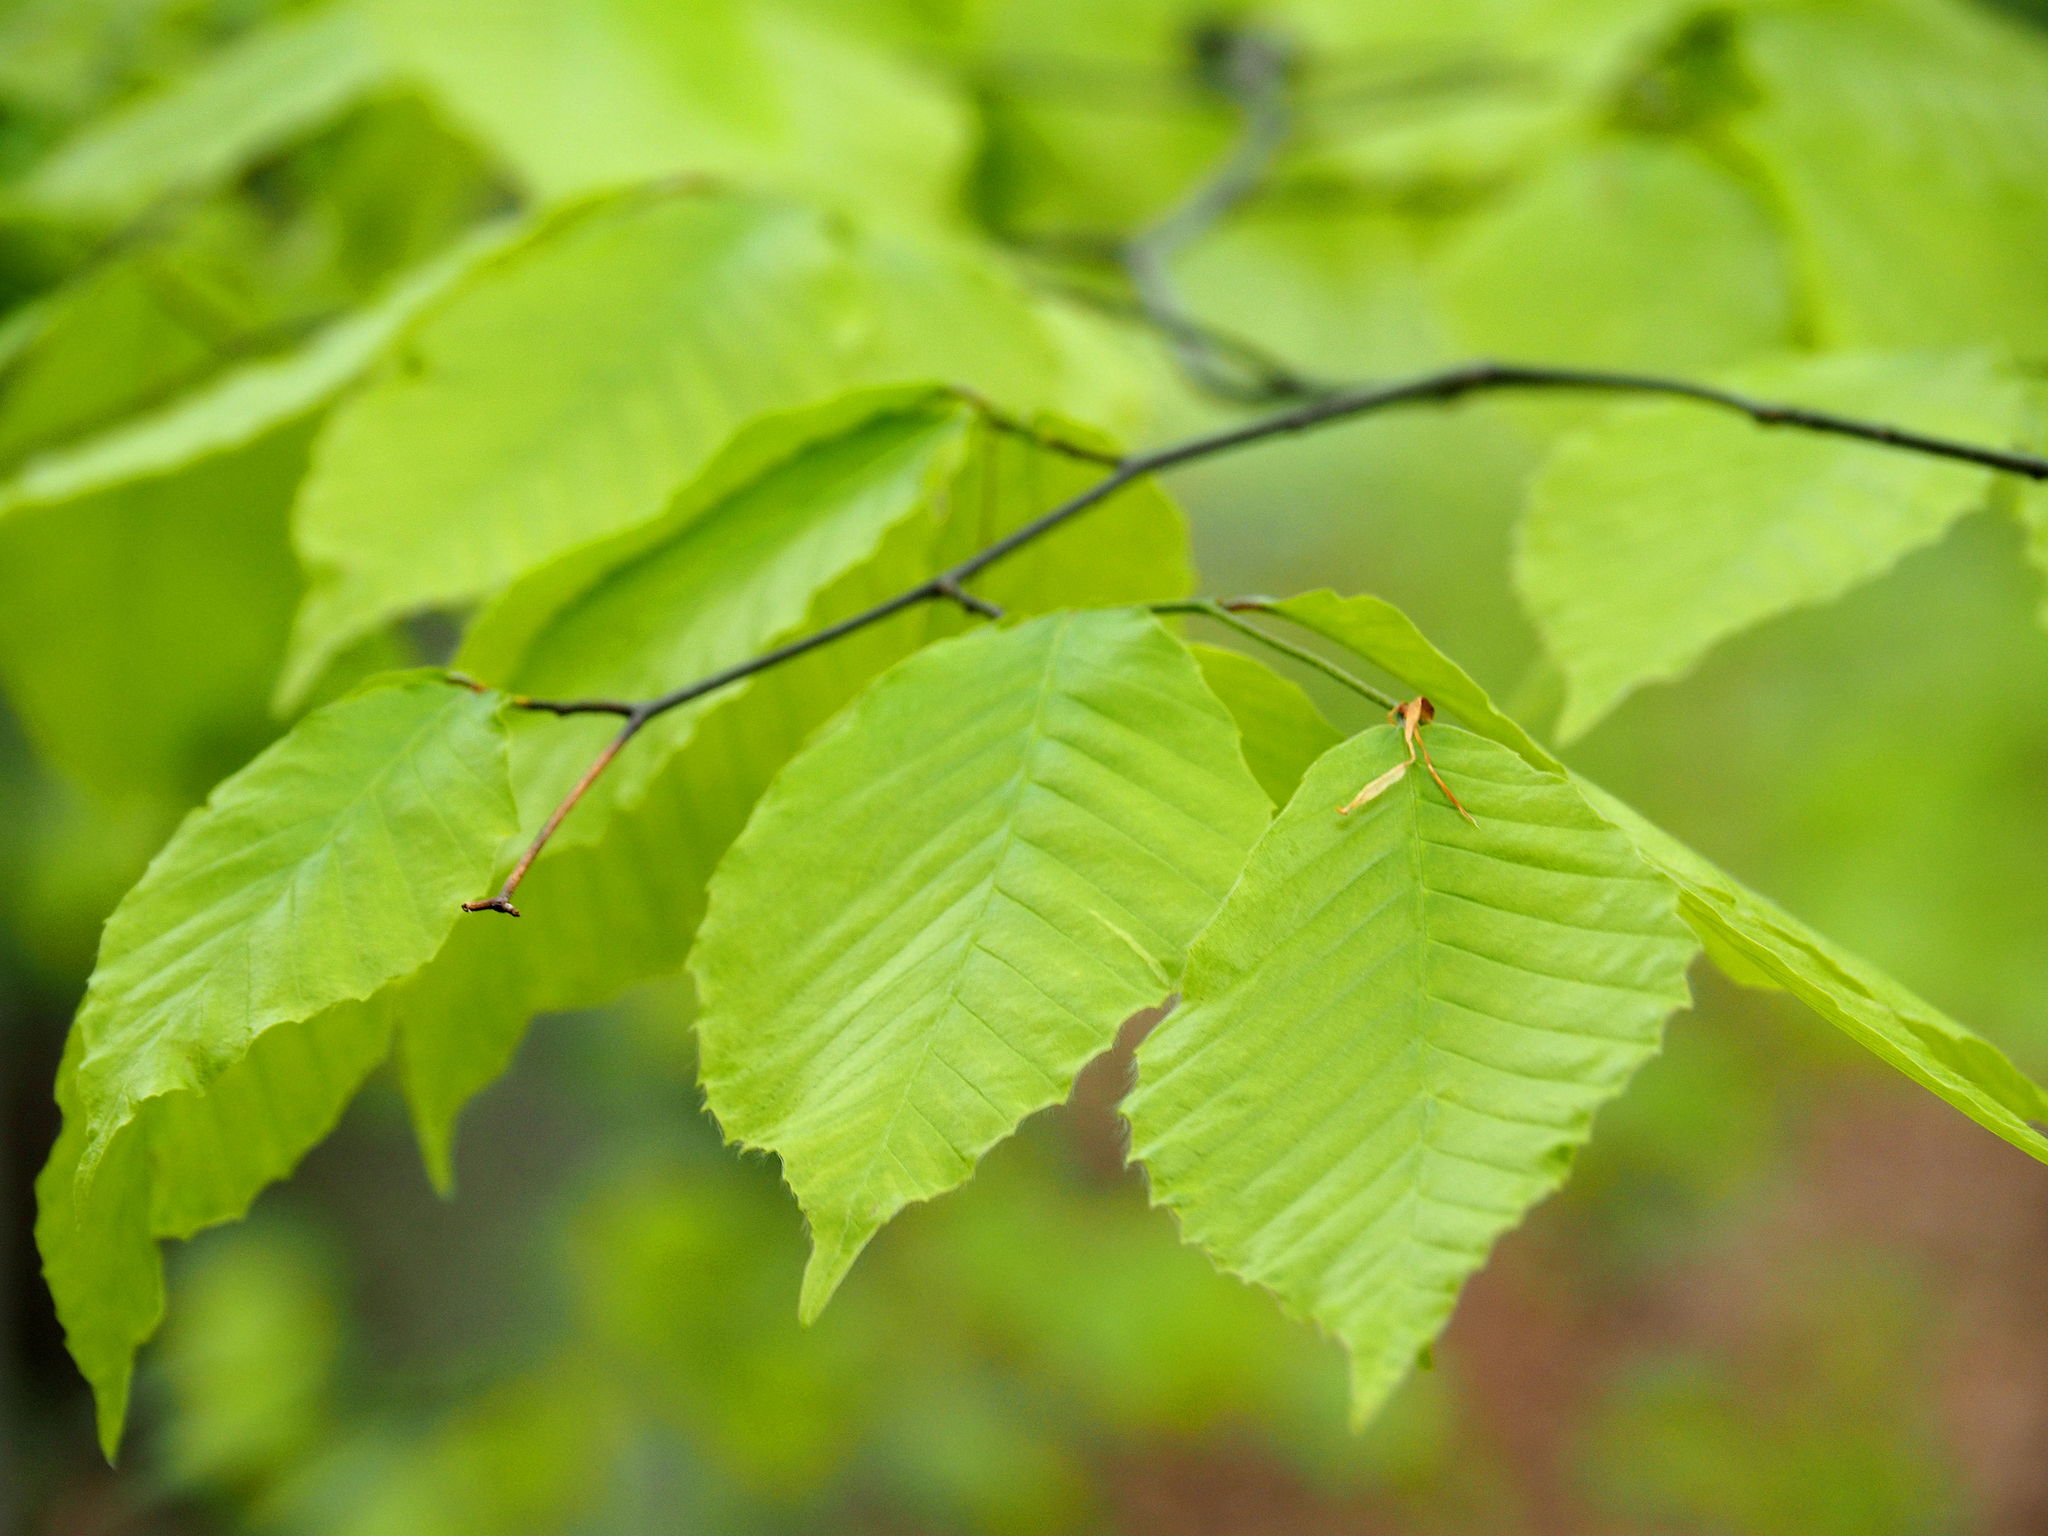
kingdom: Plantae
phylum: Tracheophyta
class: Magnoliopsida
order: Fagales
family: Fagaceae
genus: Fagus
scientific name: Fagus grandifolia
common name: American beech
